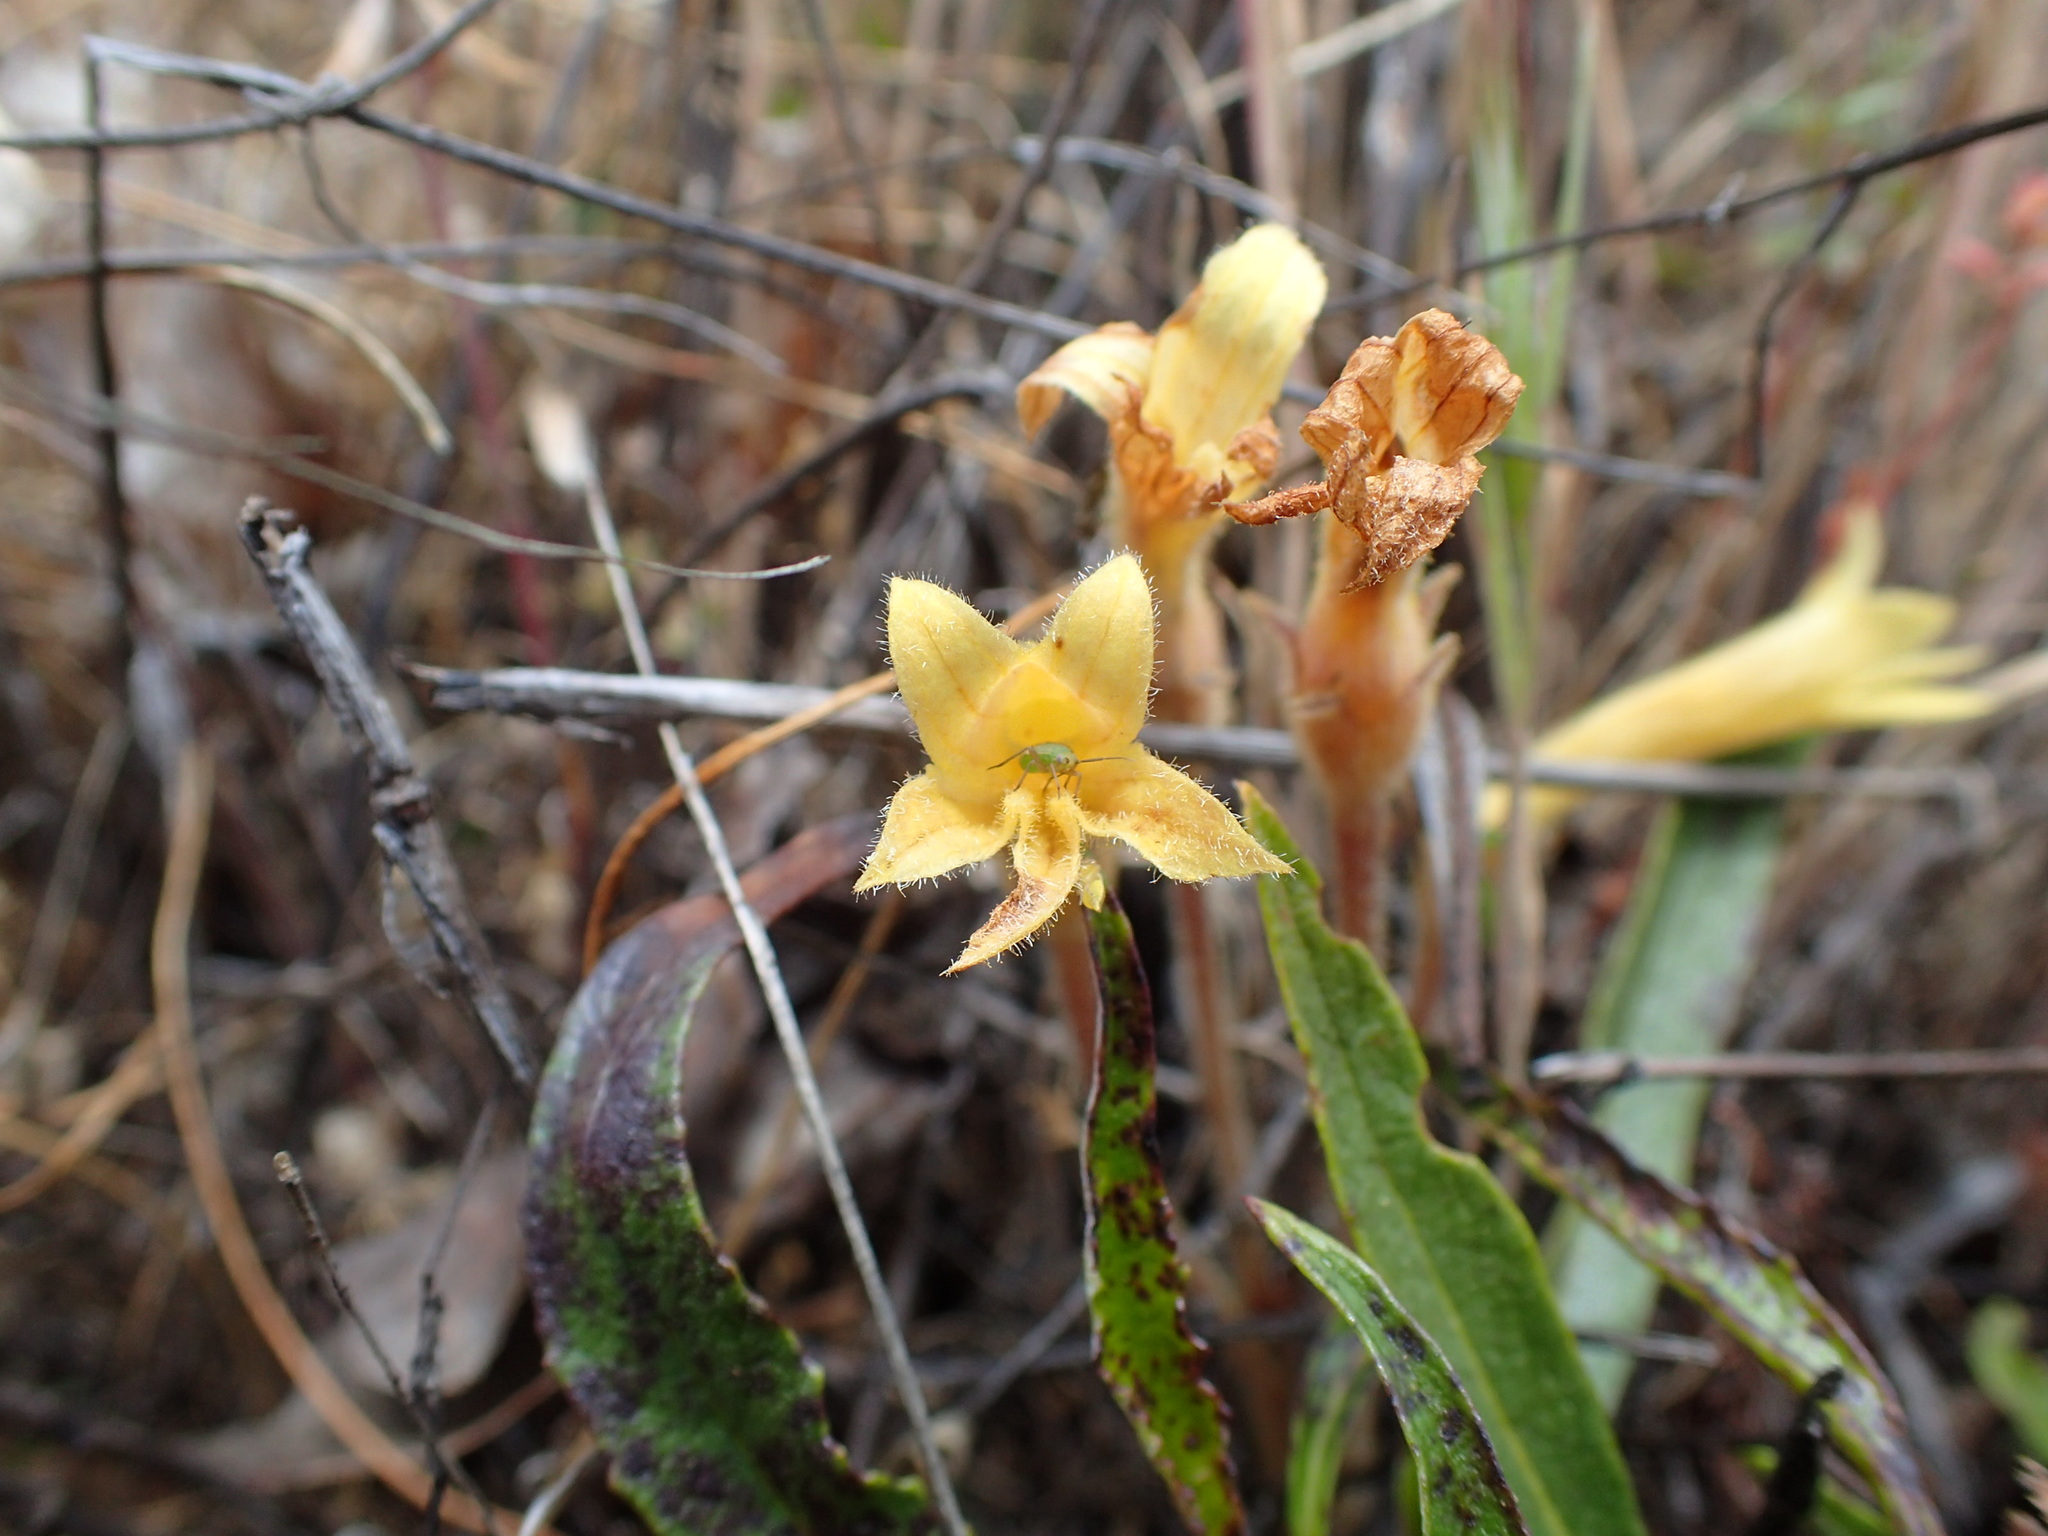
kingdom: Plantae
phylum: Tracheophyta
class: Magnoliopsida
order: Lamiales
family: Orobanchaceae
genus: Aphyllon
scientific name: Aphyllon franciscanum
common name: San francisco broomrape
